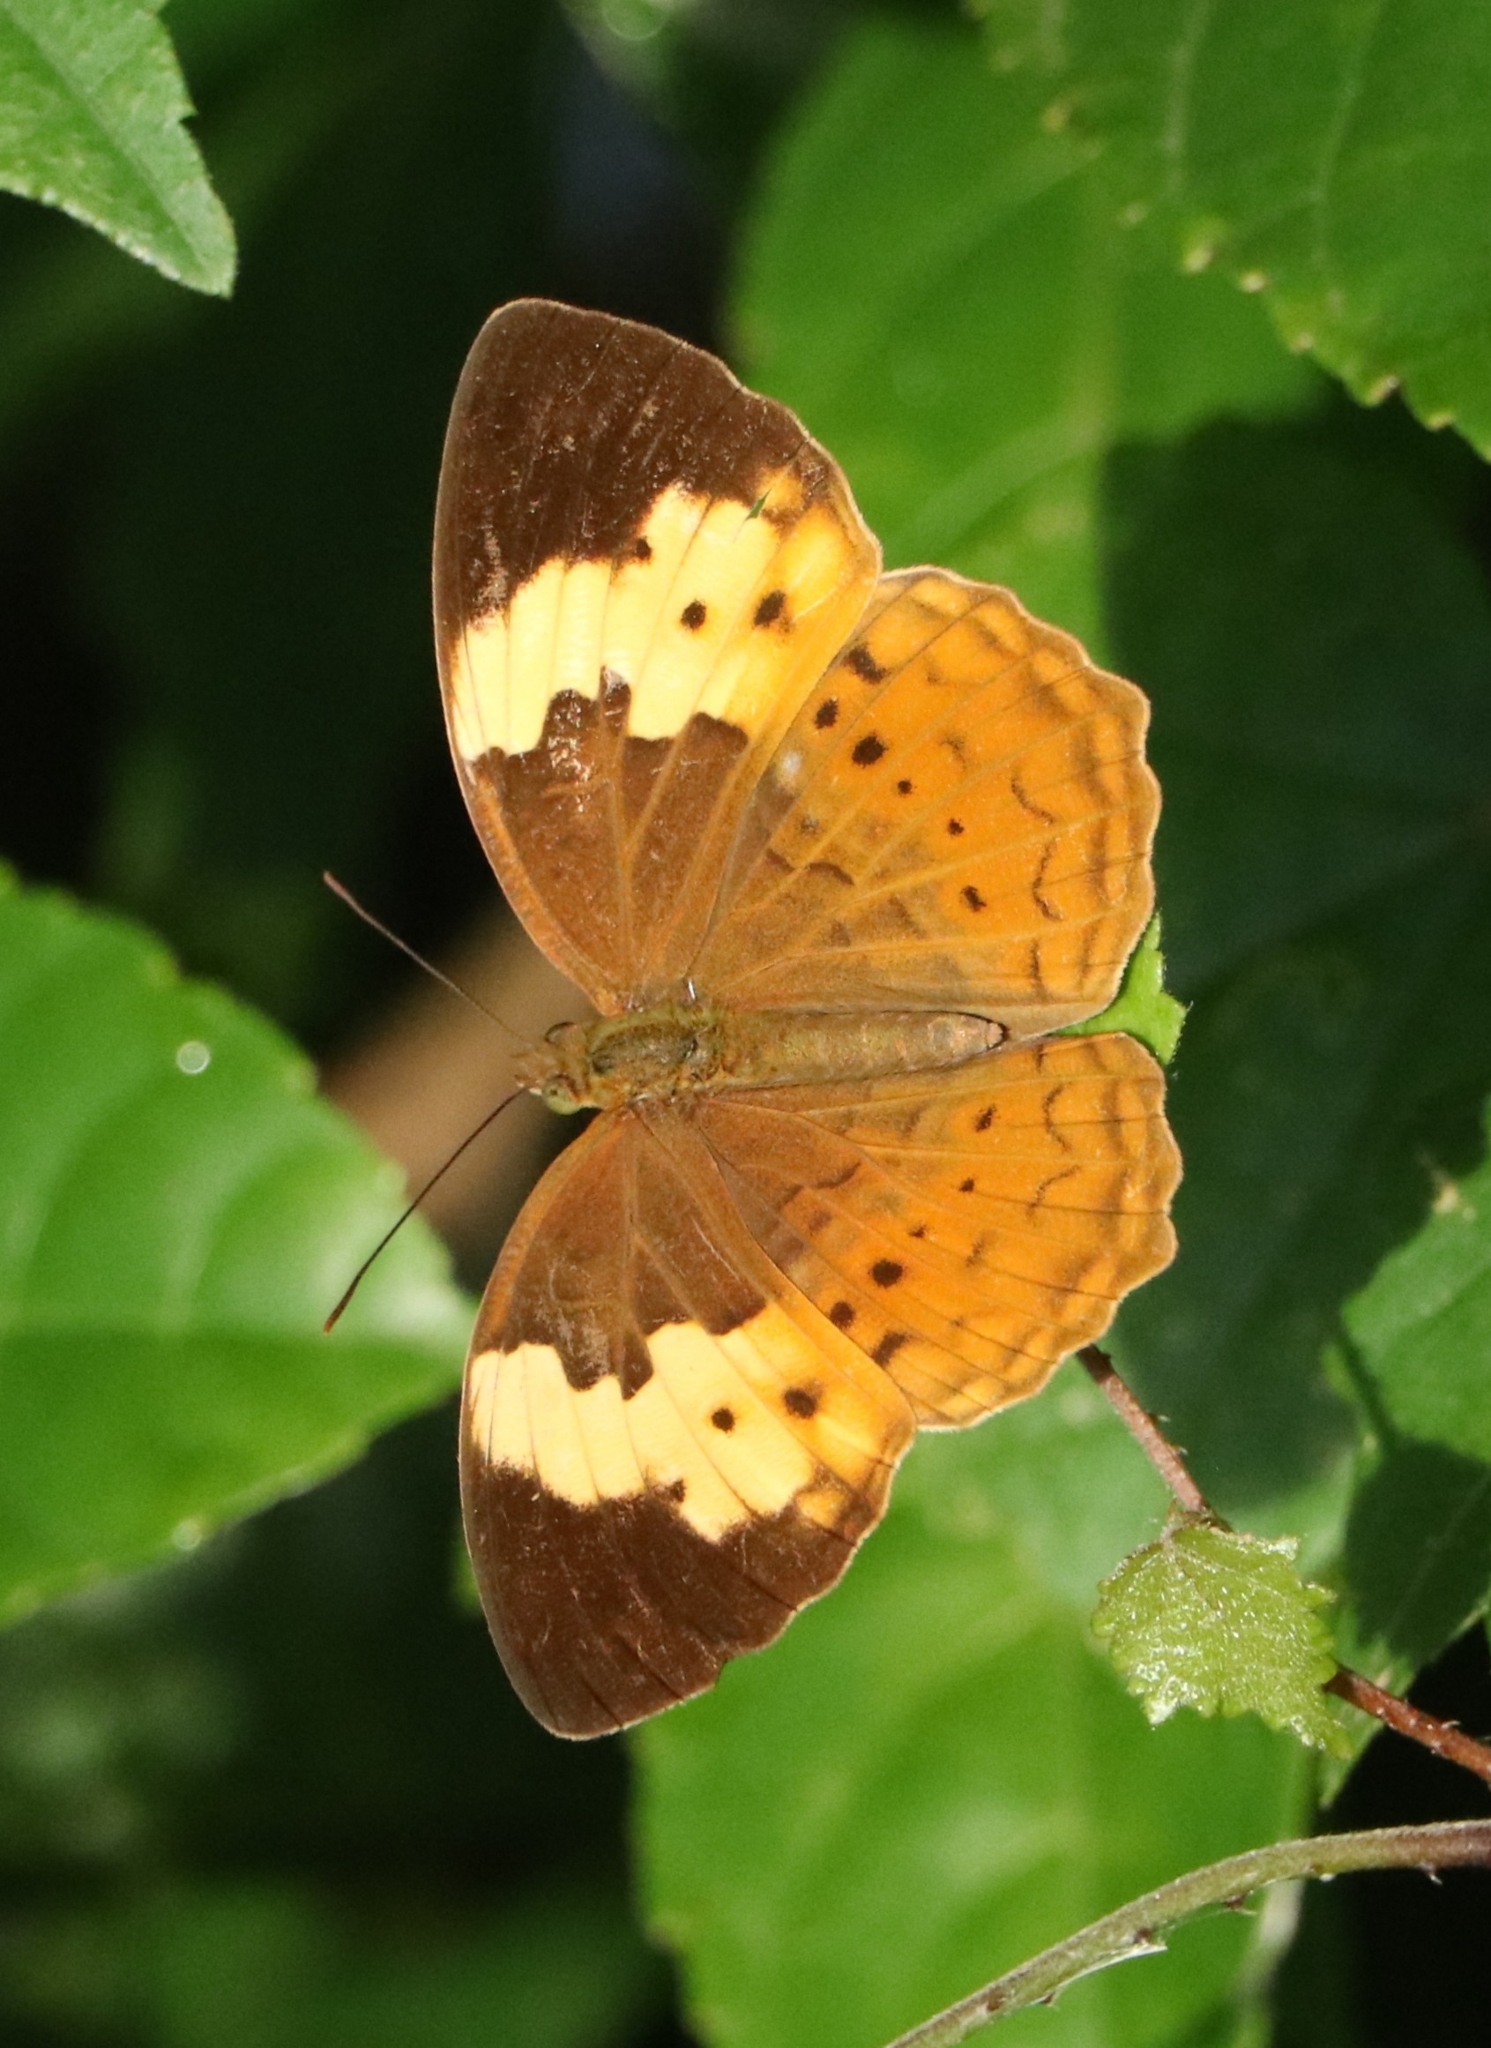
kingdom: Animalia
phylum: Arthropoda
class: Insecta
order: Lepidoptera
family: Nymphalidae
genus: Cupha
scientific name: Cupha erymanthis
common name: Rustic
